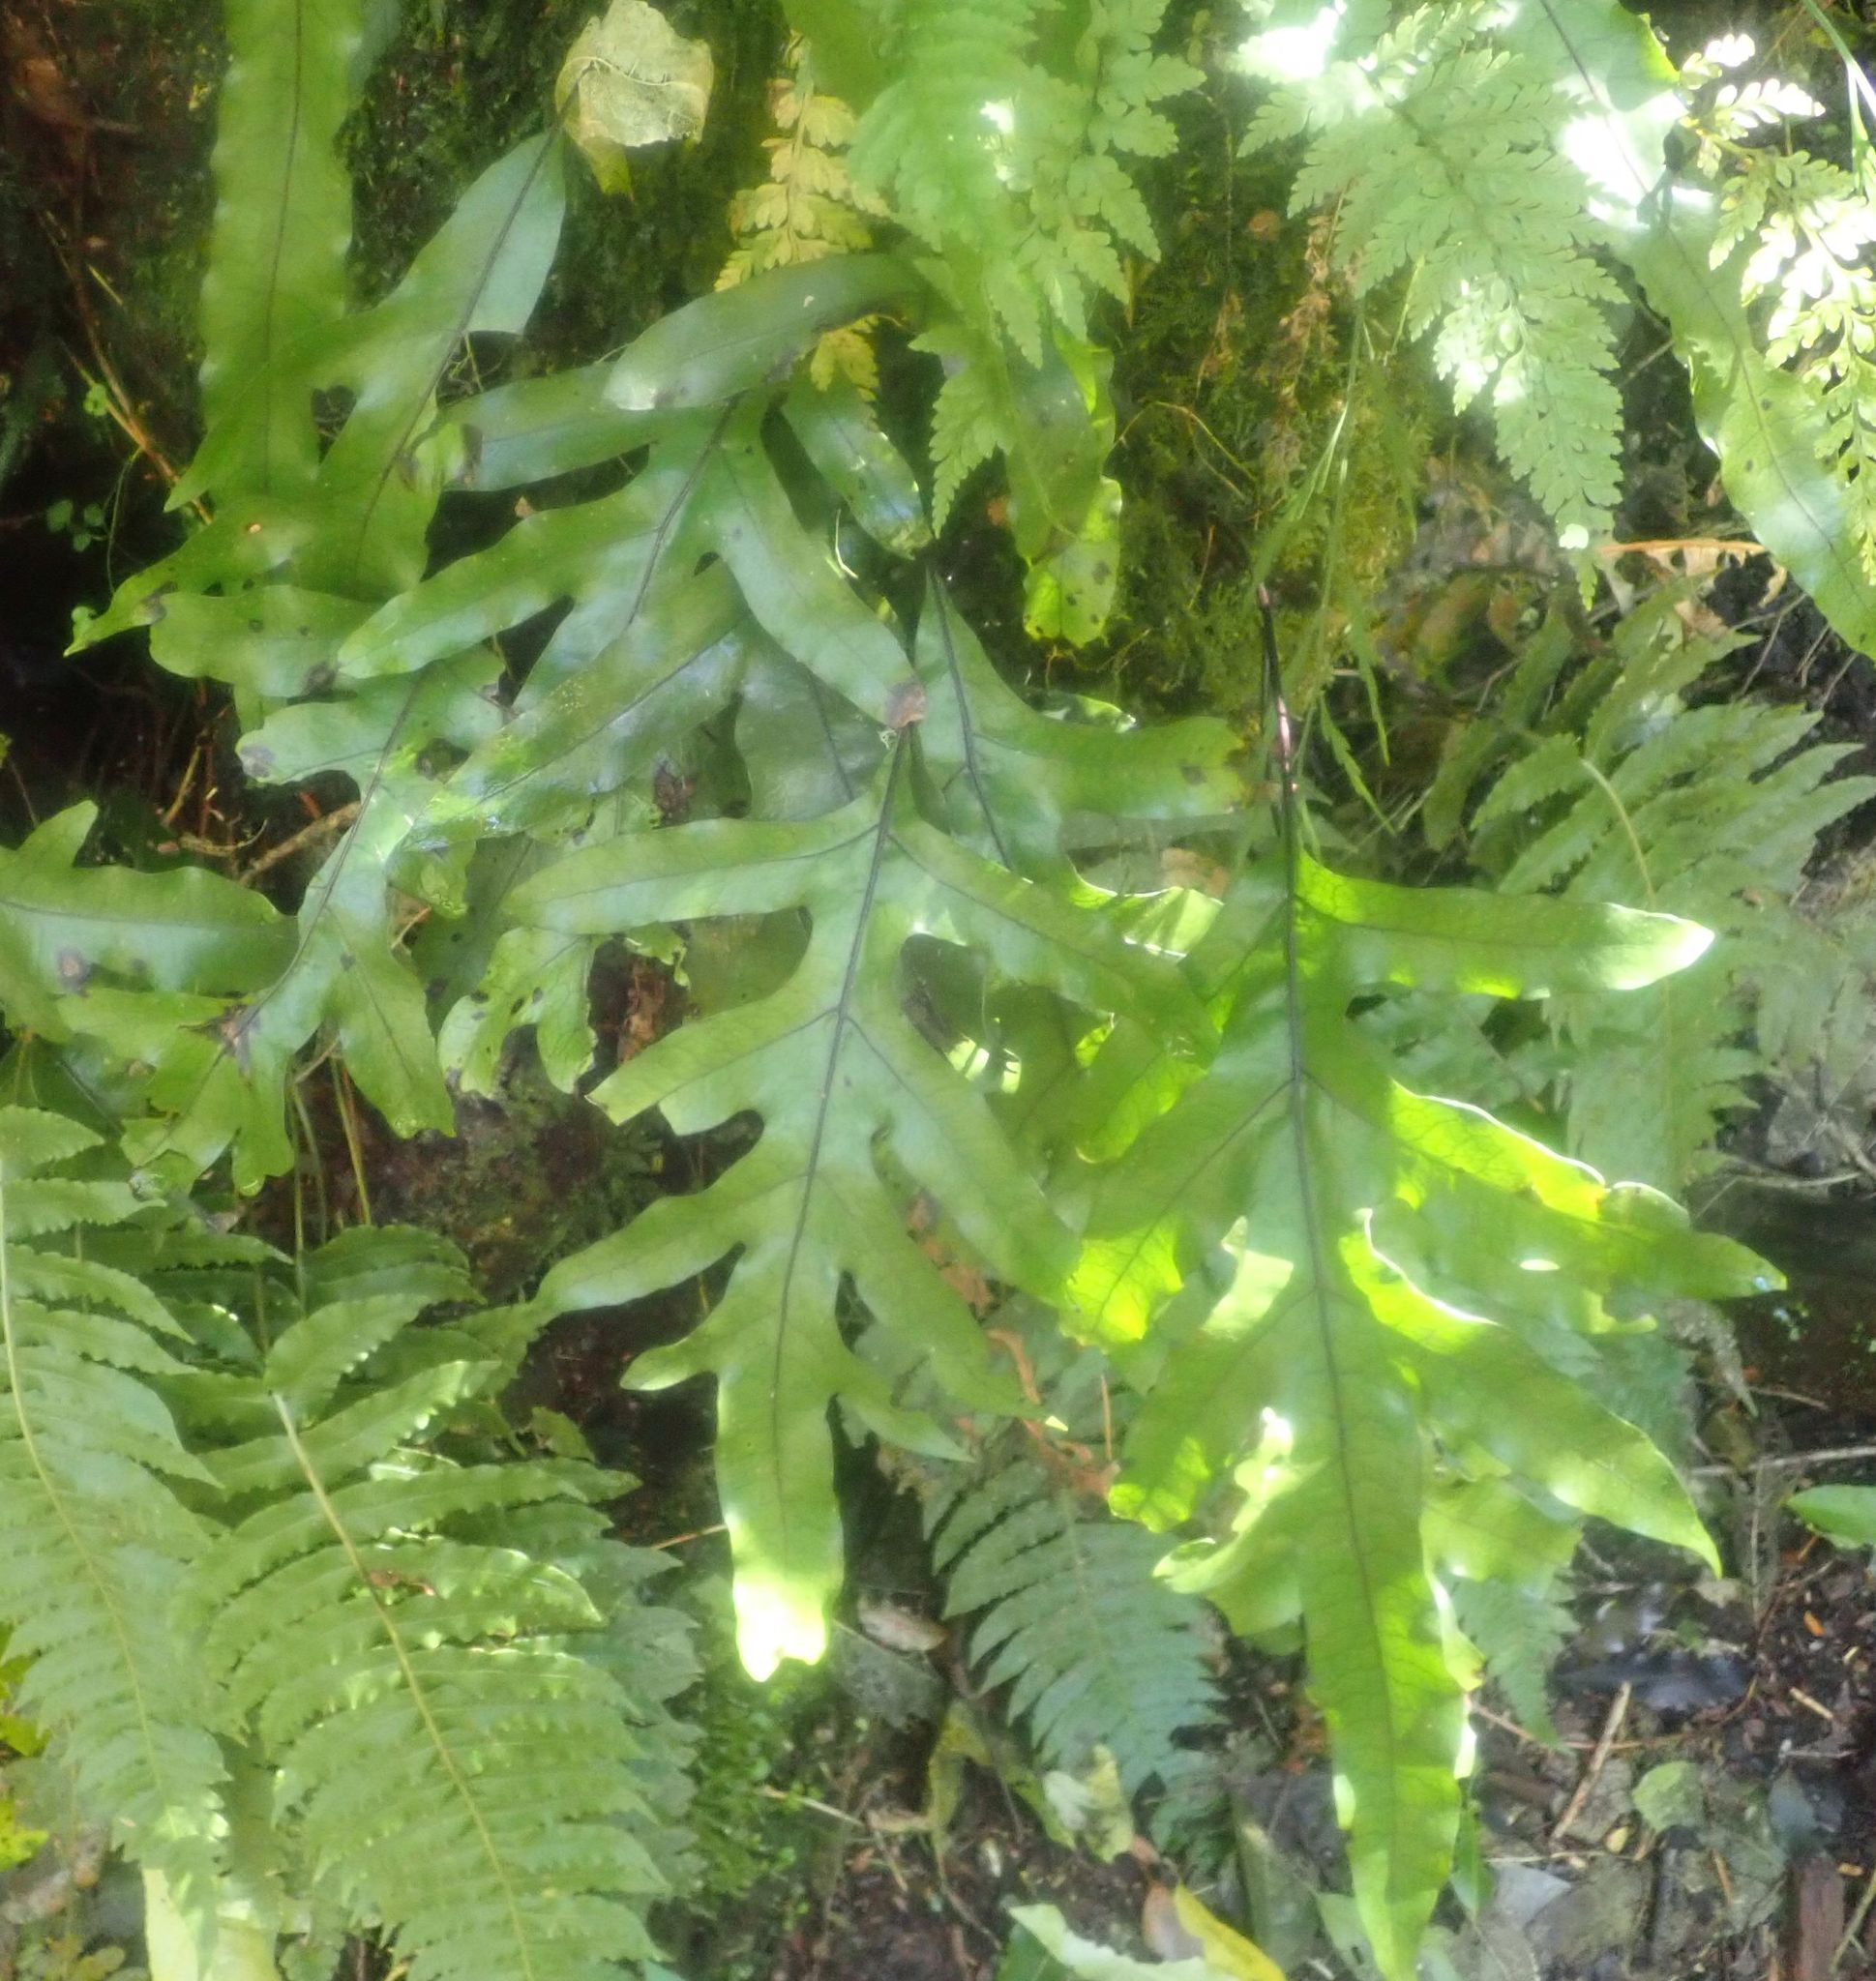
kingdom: Plantae
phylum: Tracheophyta
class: Polypodiopsida
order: Polypodiales
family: Polypodiaceae
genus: Lecanopteris
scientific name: Lecanopteris pustulata
